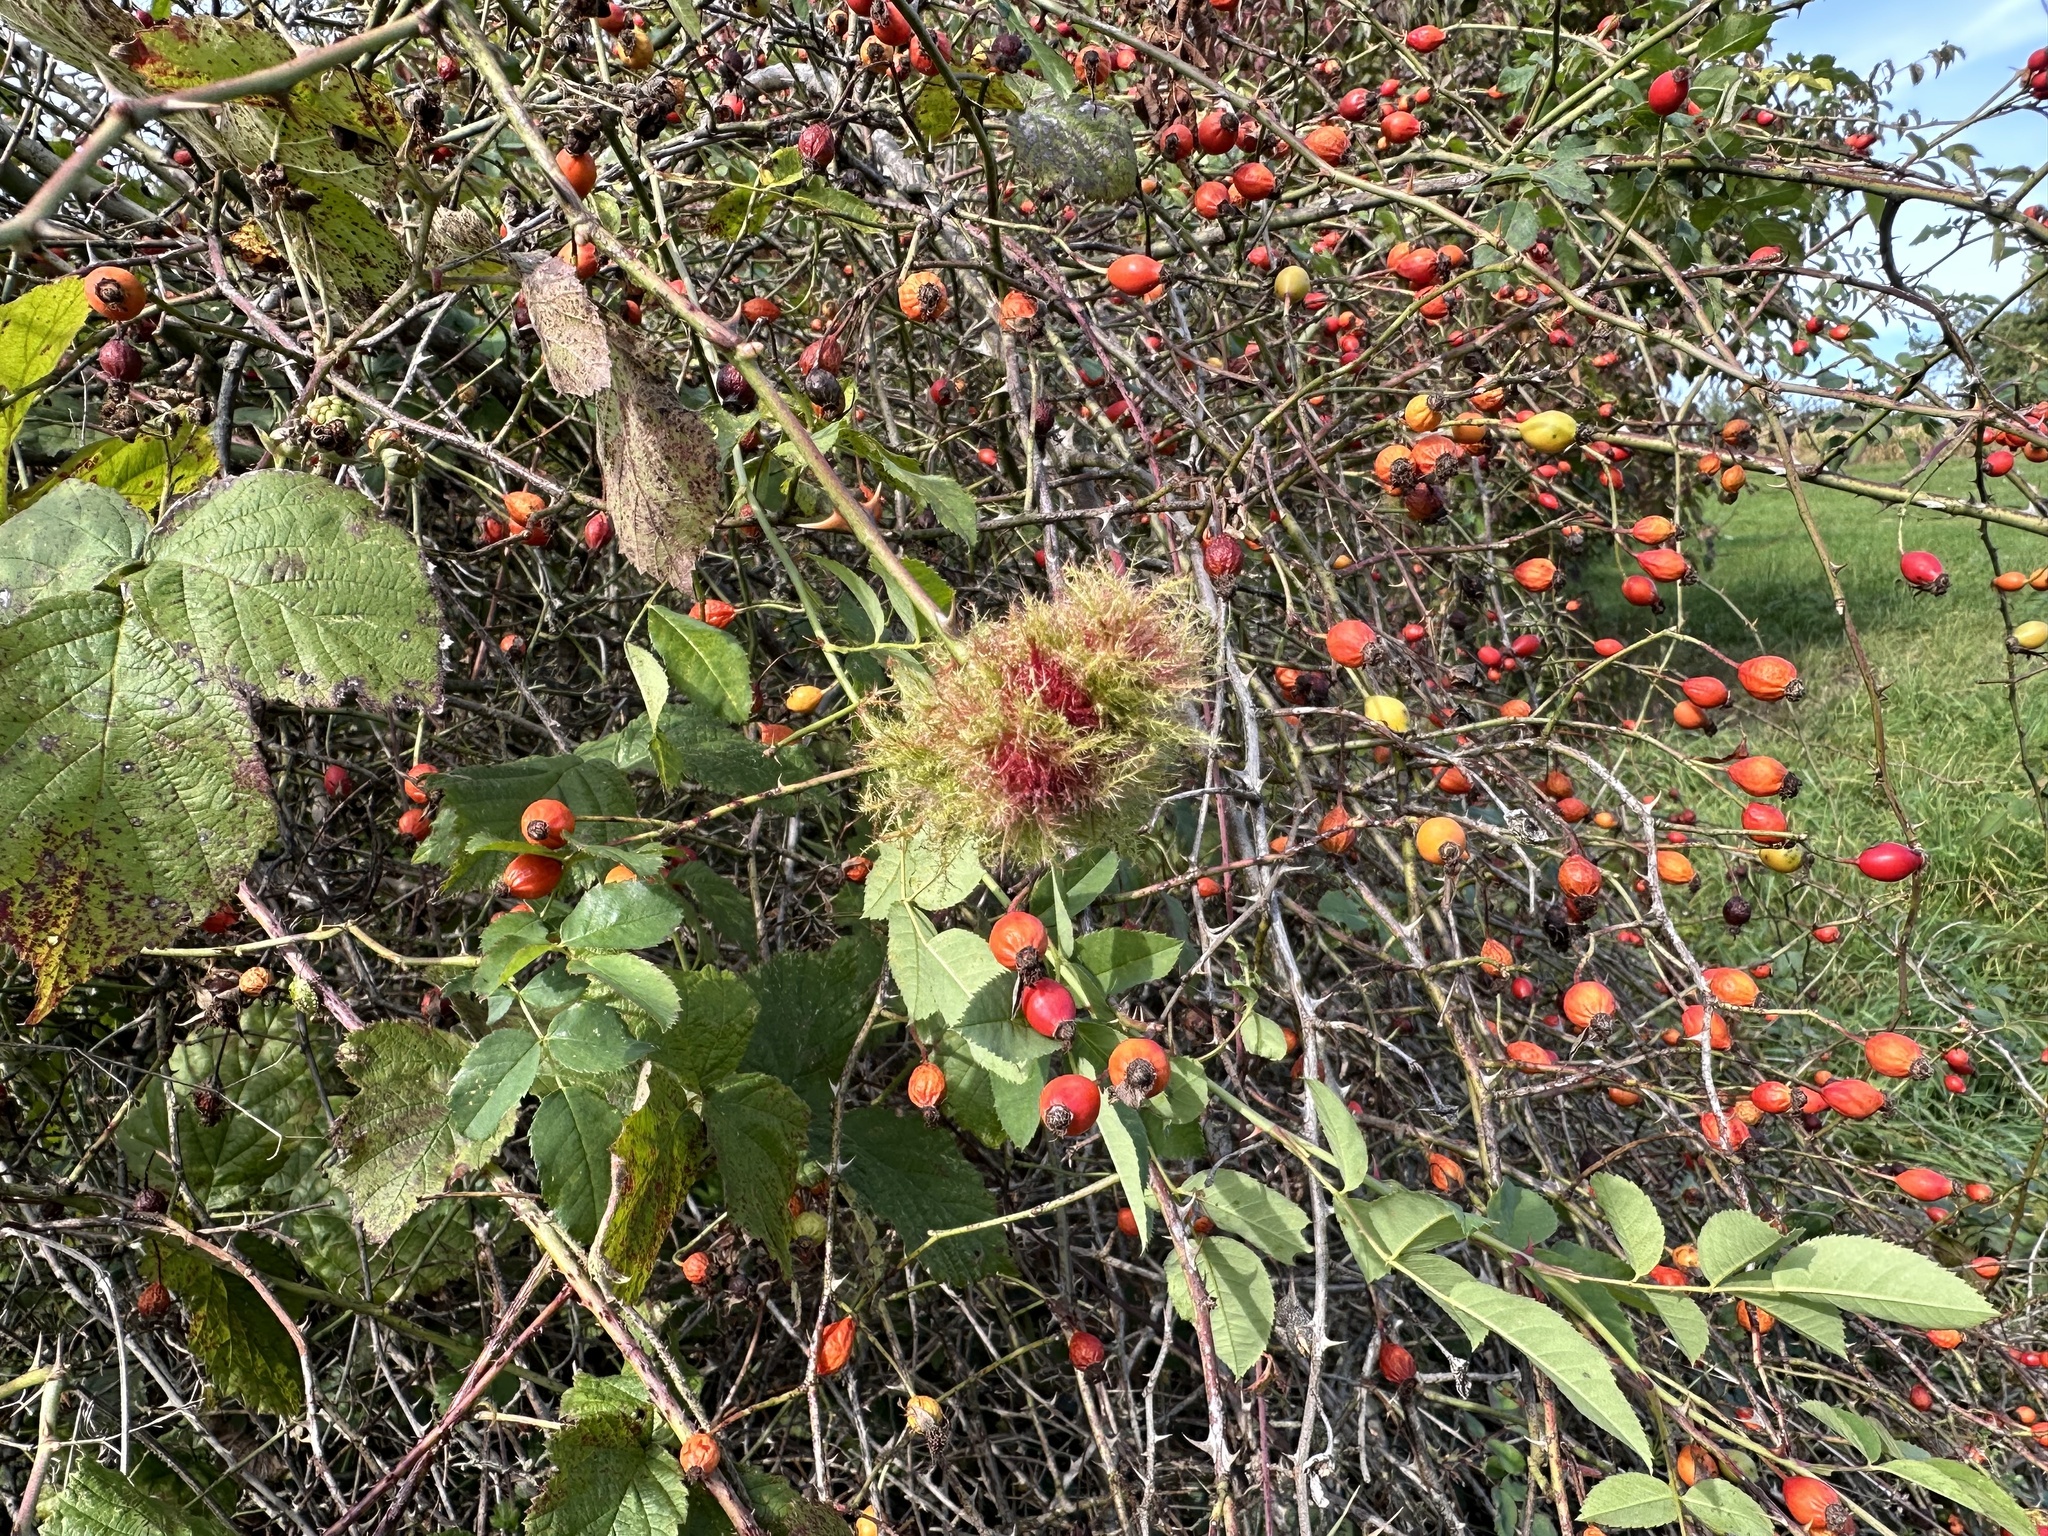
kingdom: Animalia
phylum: Arthropoda
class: Insecta
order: Hymenoptera
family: Cynipidae
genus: Diplolepis
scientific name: Diplolepis rosae
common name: Bedeguar gall
